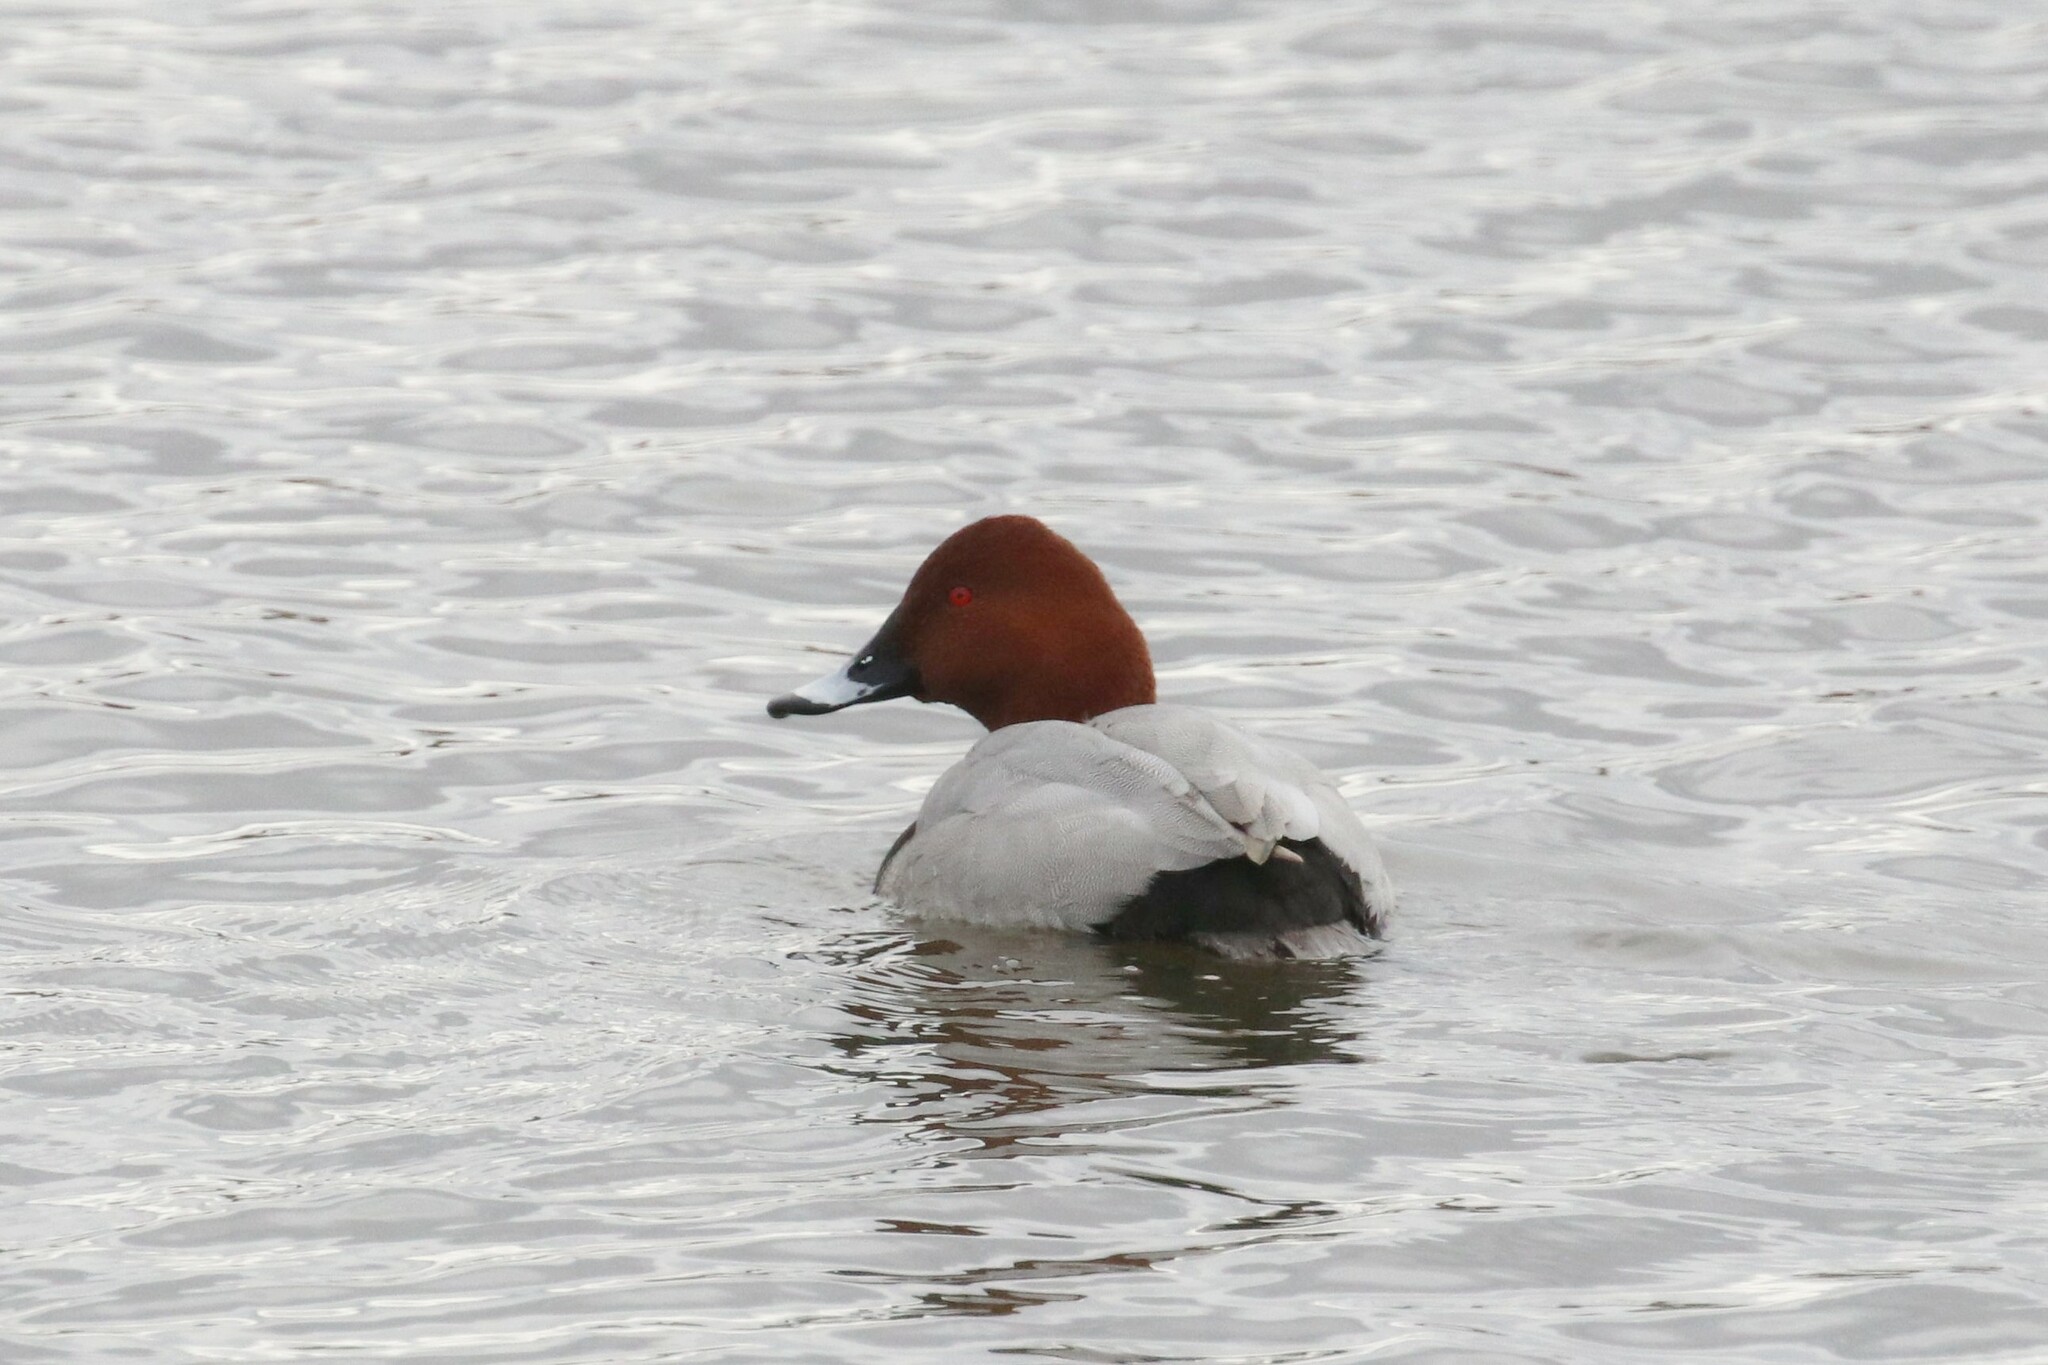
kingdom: Animalia
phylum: Chordata
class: Aves
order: Anseriformes
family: Anatidae
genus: Aythya
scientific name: Aythya ferina
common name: Common pochard
